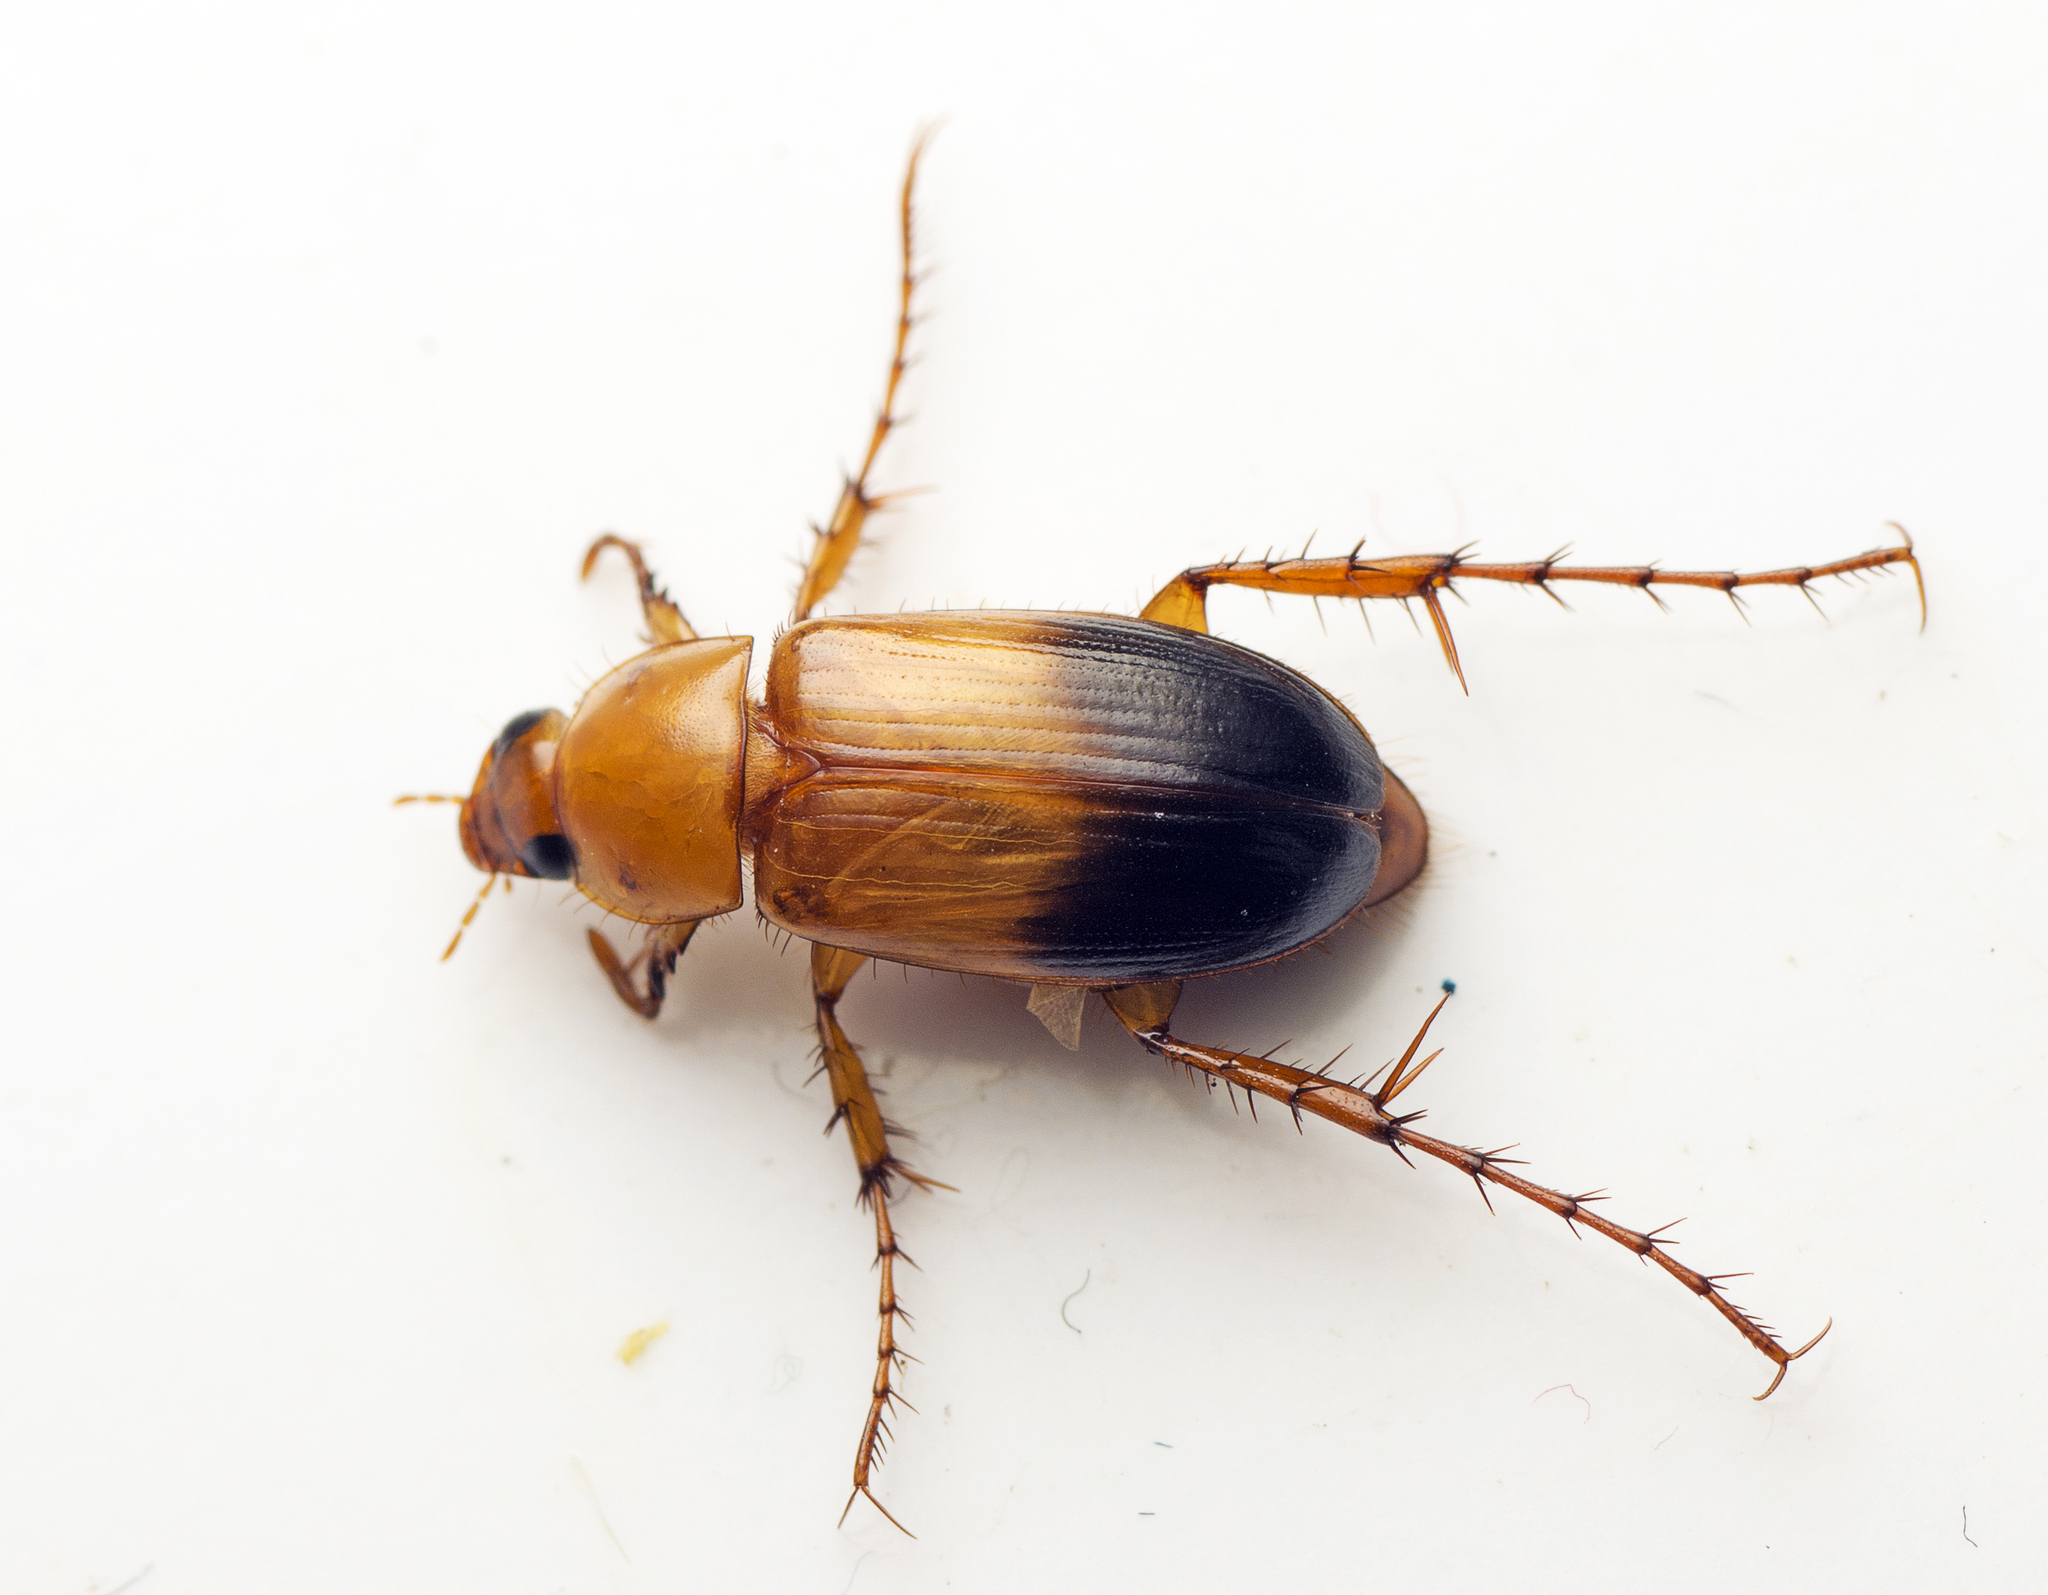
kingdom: Animalia
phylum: Arthropoda
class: Insecta
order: Coleoptera
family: Scarabaeidae
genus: Phyllotocus
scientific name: Phyllotocus macleayi
